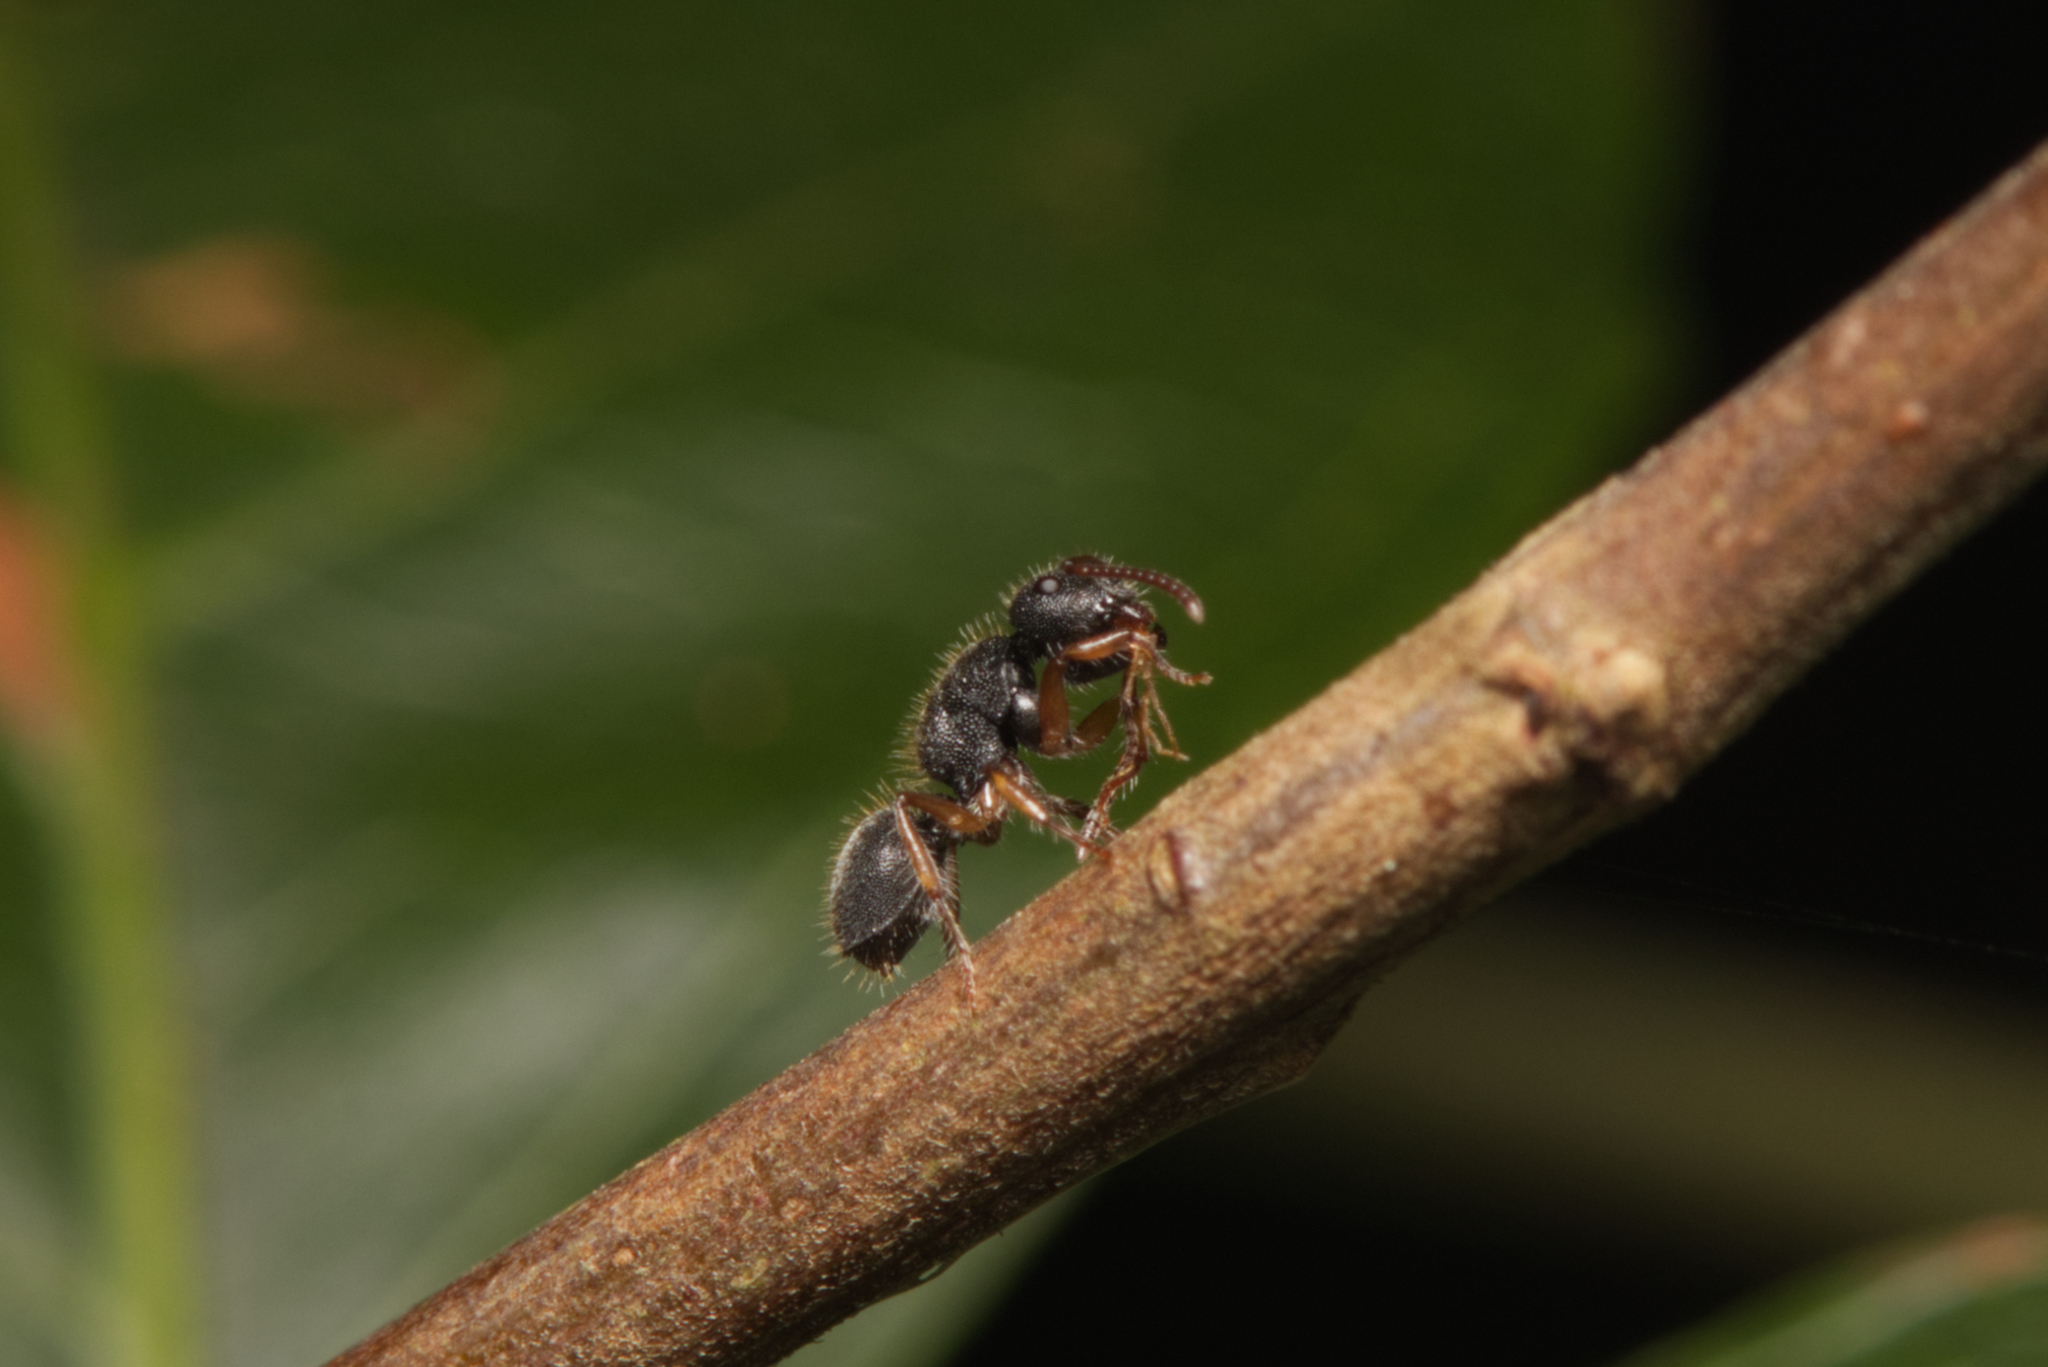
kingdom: Animalia
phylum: Arthropoda
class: Insecta
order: Hymenoptera
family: Formicidae
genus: Echinopla
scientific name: Echinopla turneri
